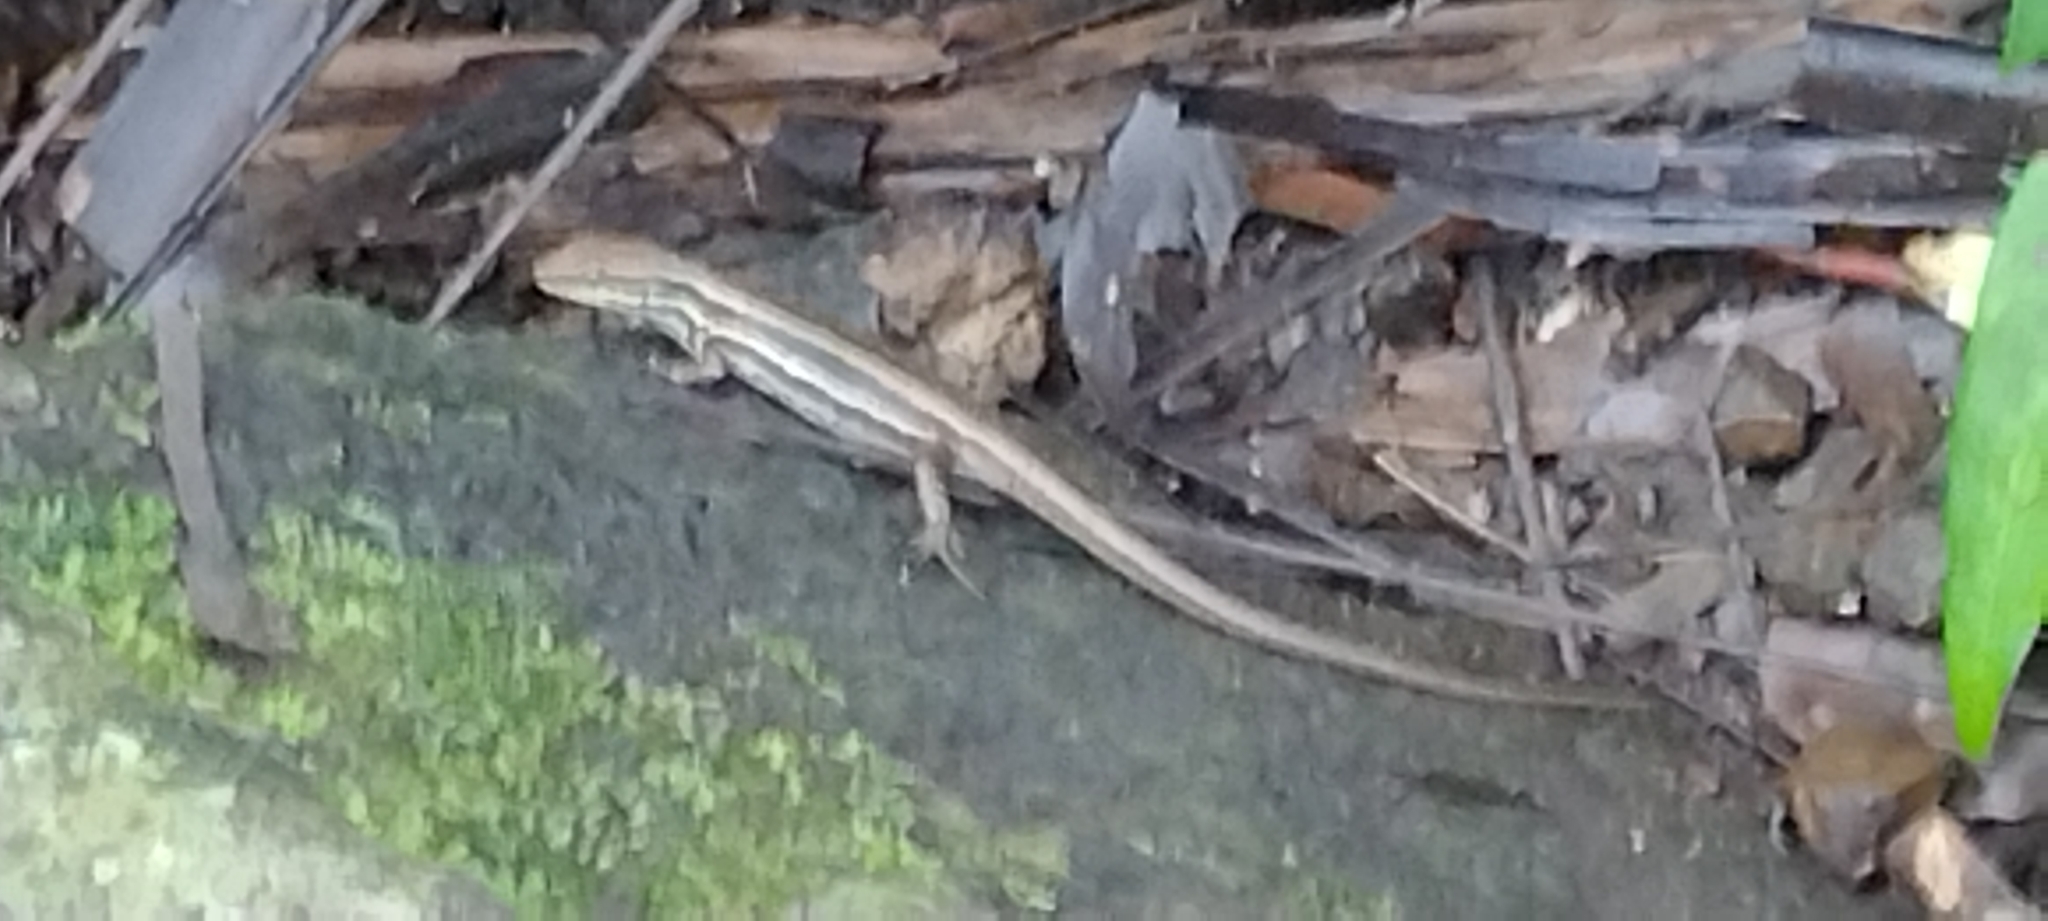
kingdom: Animalia
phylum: Chordata
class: Squamata
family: Scincidae
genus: Emoia
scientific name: Emoia jakati
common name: Kopstein's emo skink
